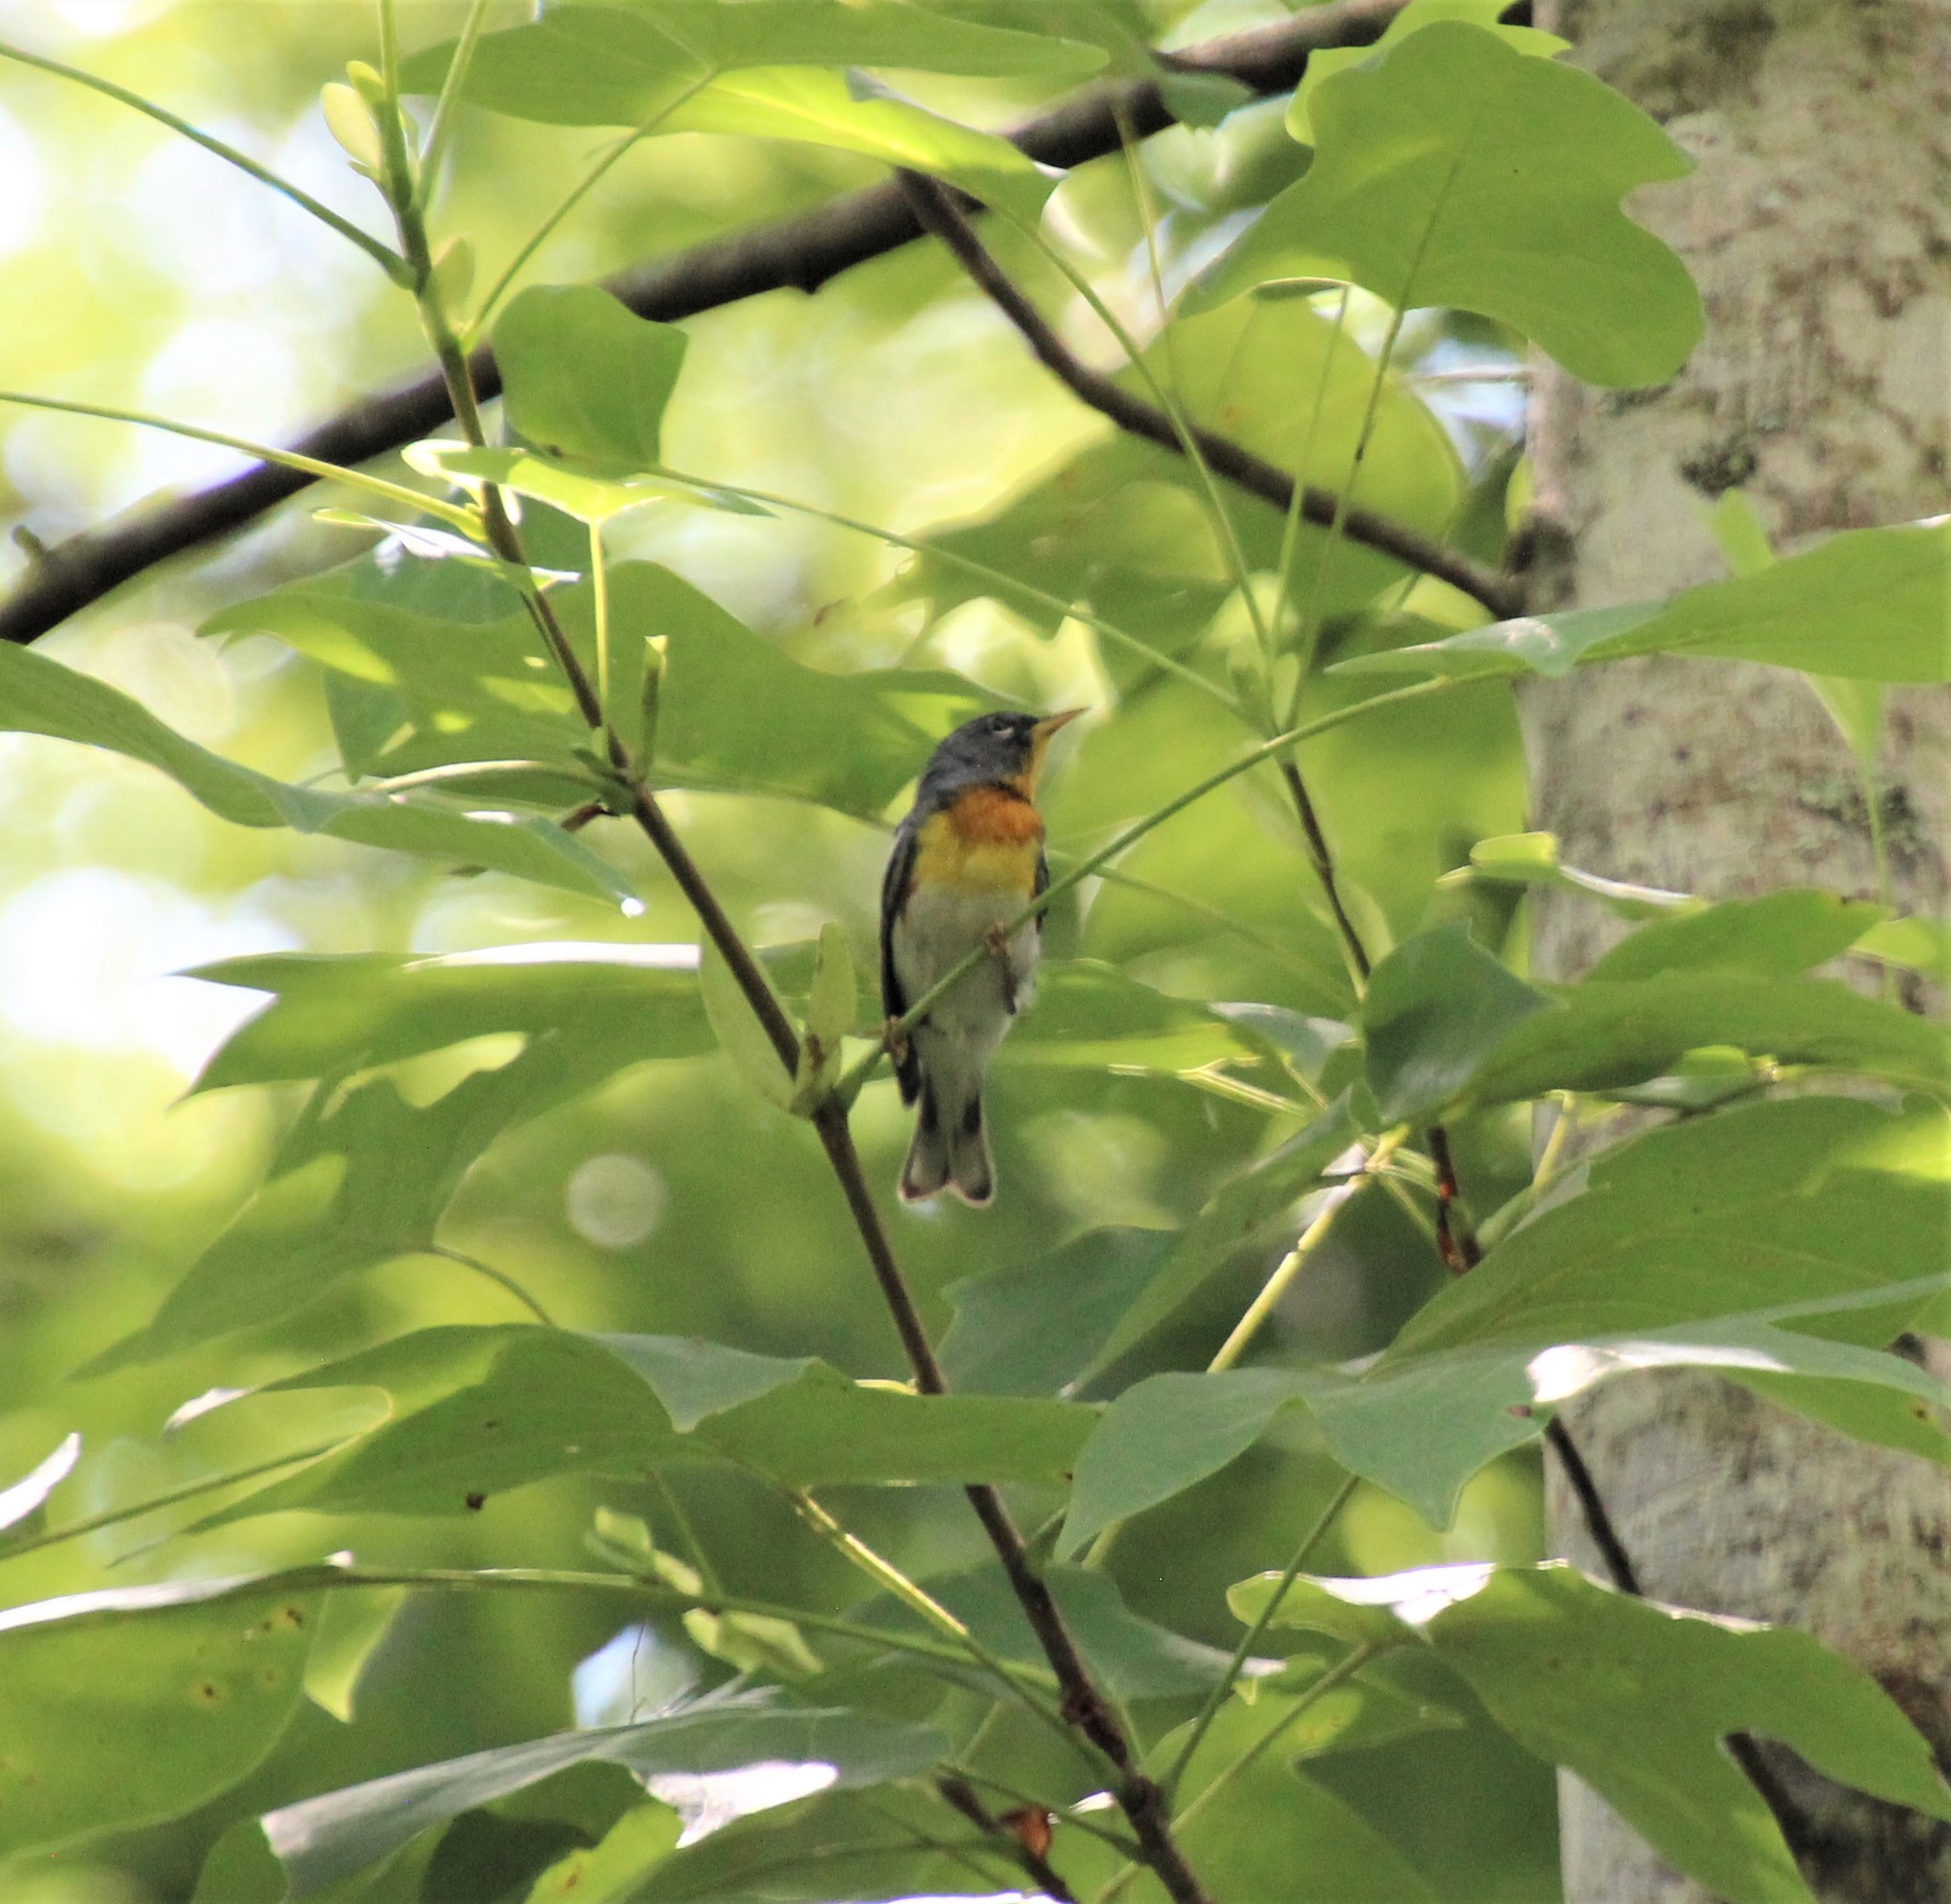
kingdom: Animalia
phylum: Chordata
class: Aves
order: Passeriformes
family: Parulidae
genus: Setophaga
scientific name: Setophaga americana
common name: Northern parula
